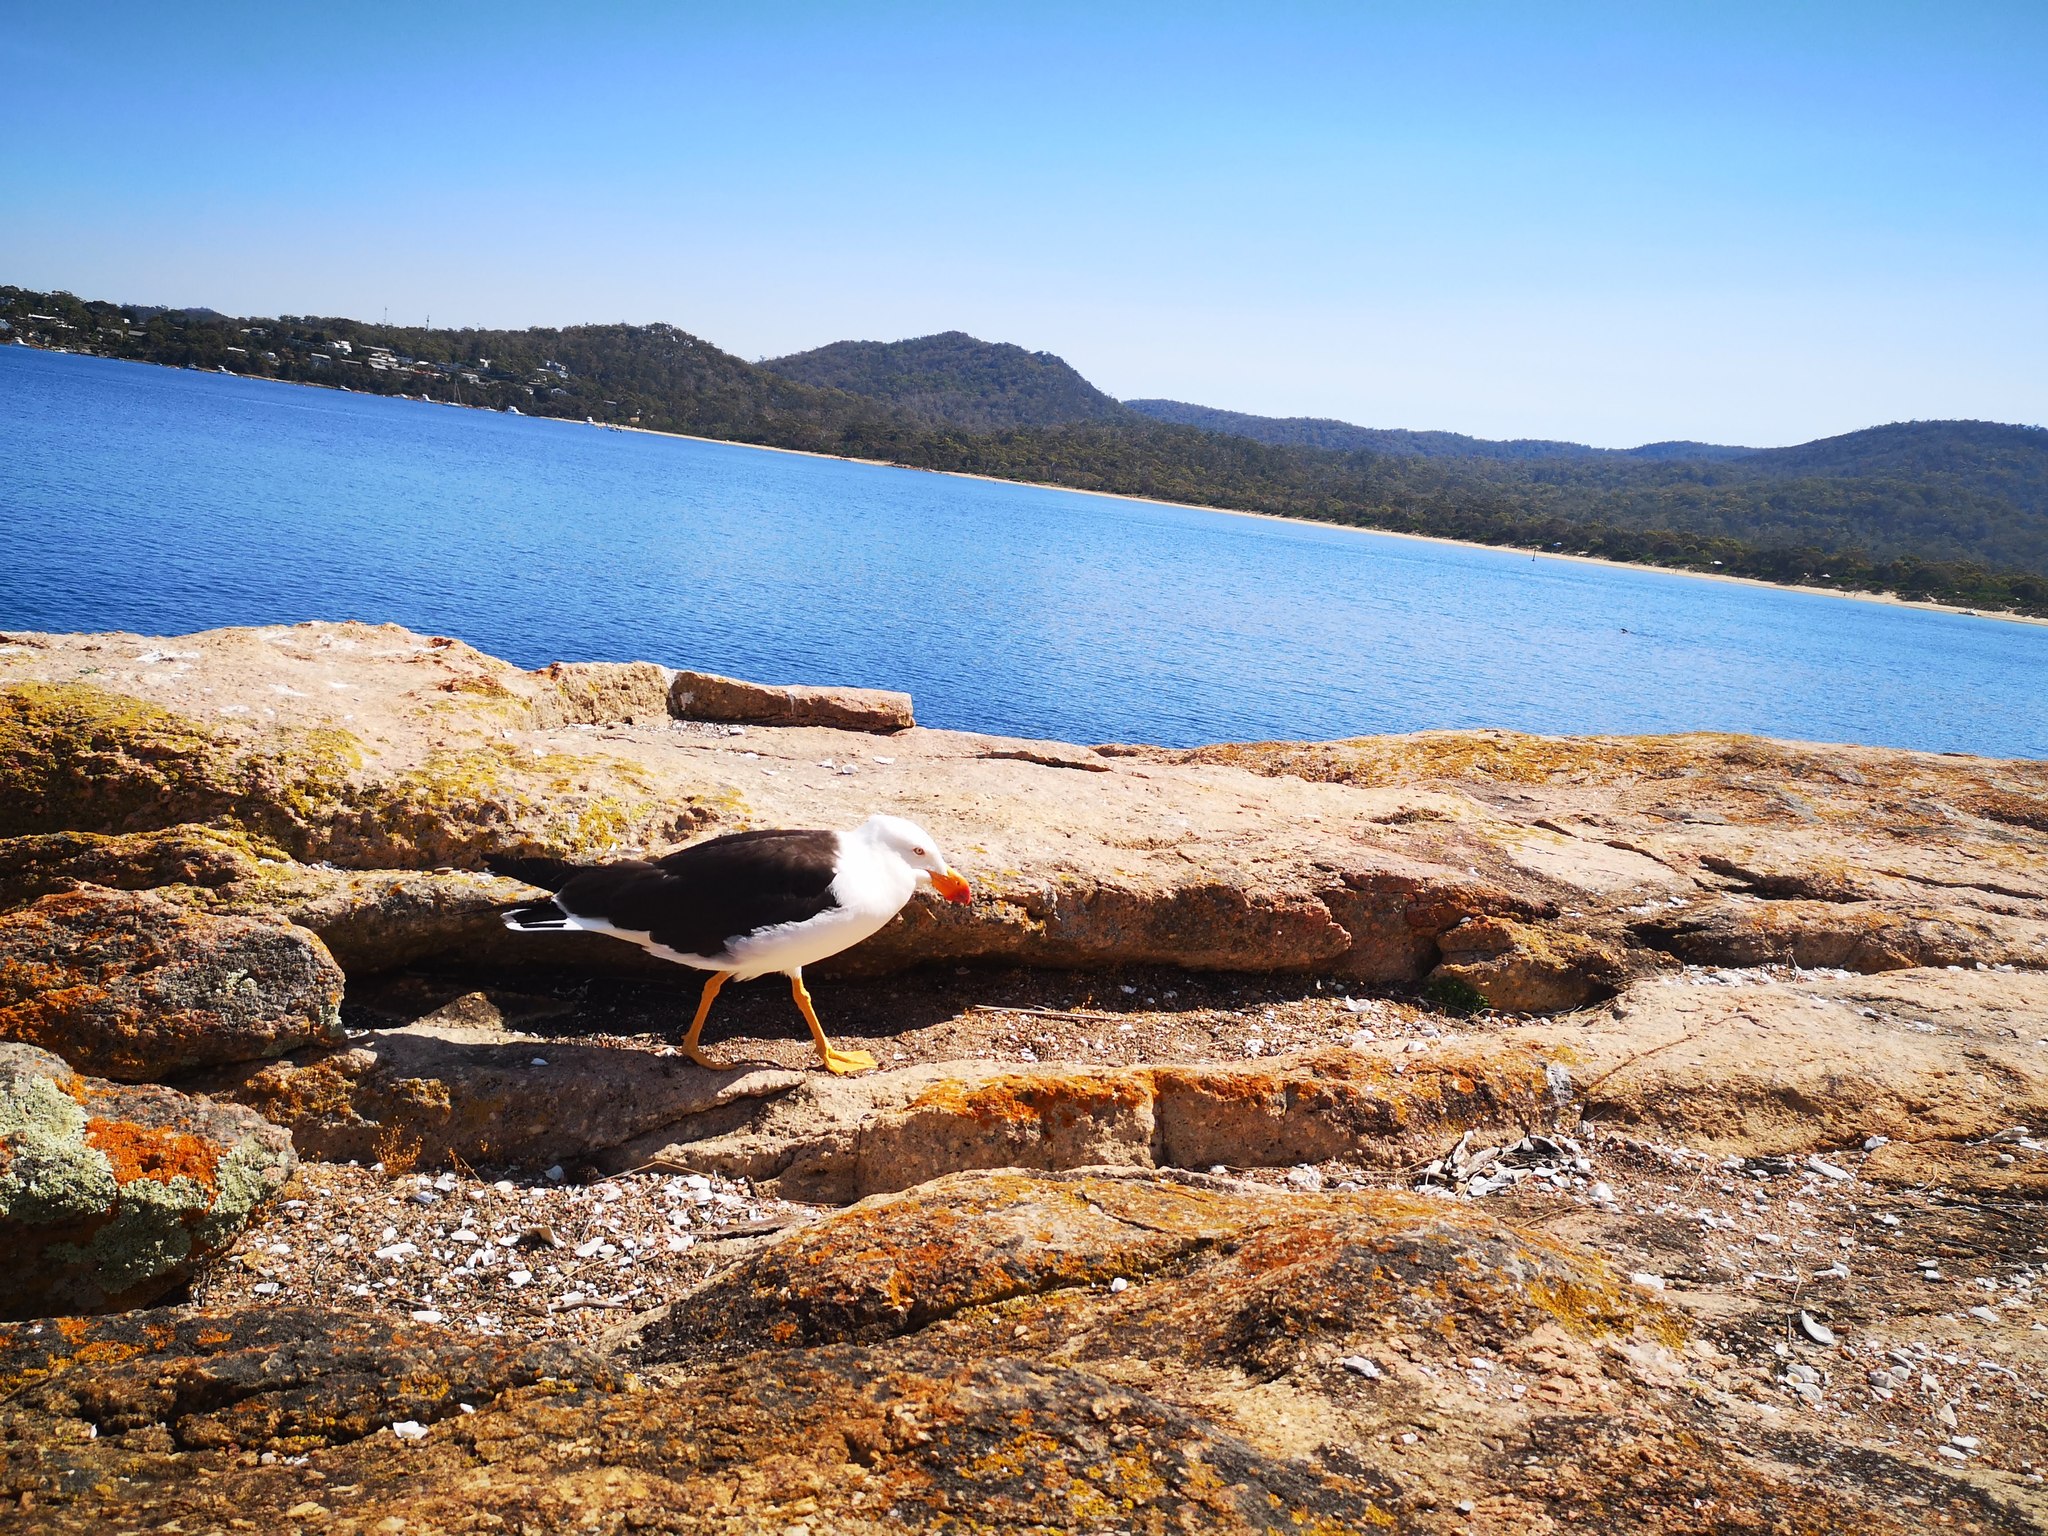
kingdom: Animalia
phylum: Chordata
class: Aves
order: Charadriiformes
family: Laridae
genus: Larus
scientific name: Larus pacificus
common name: Pacific gull
